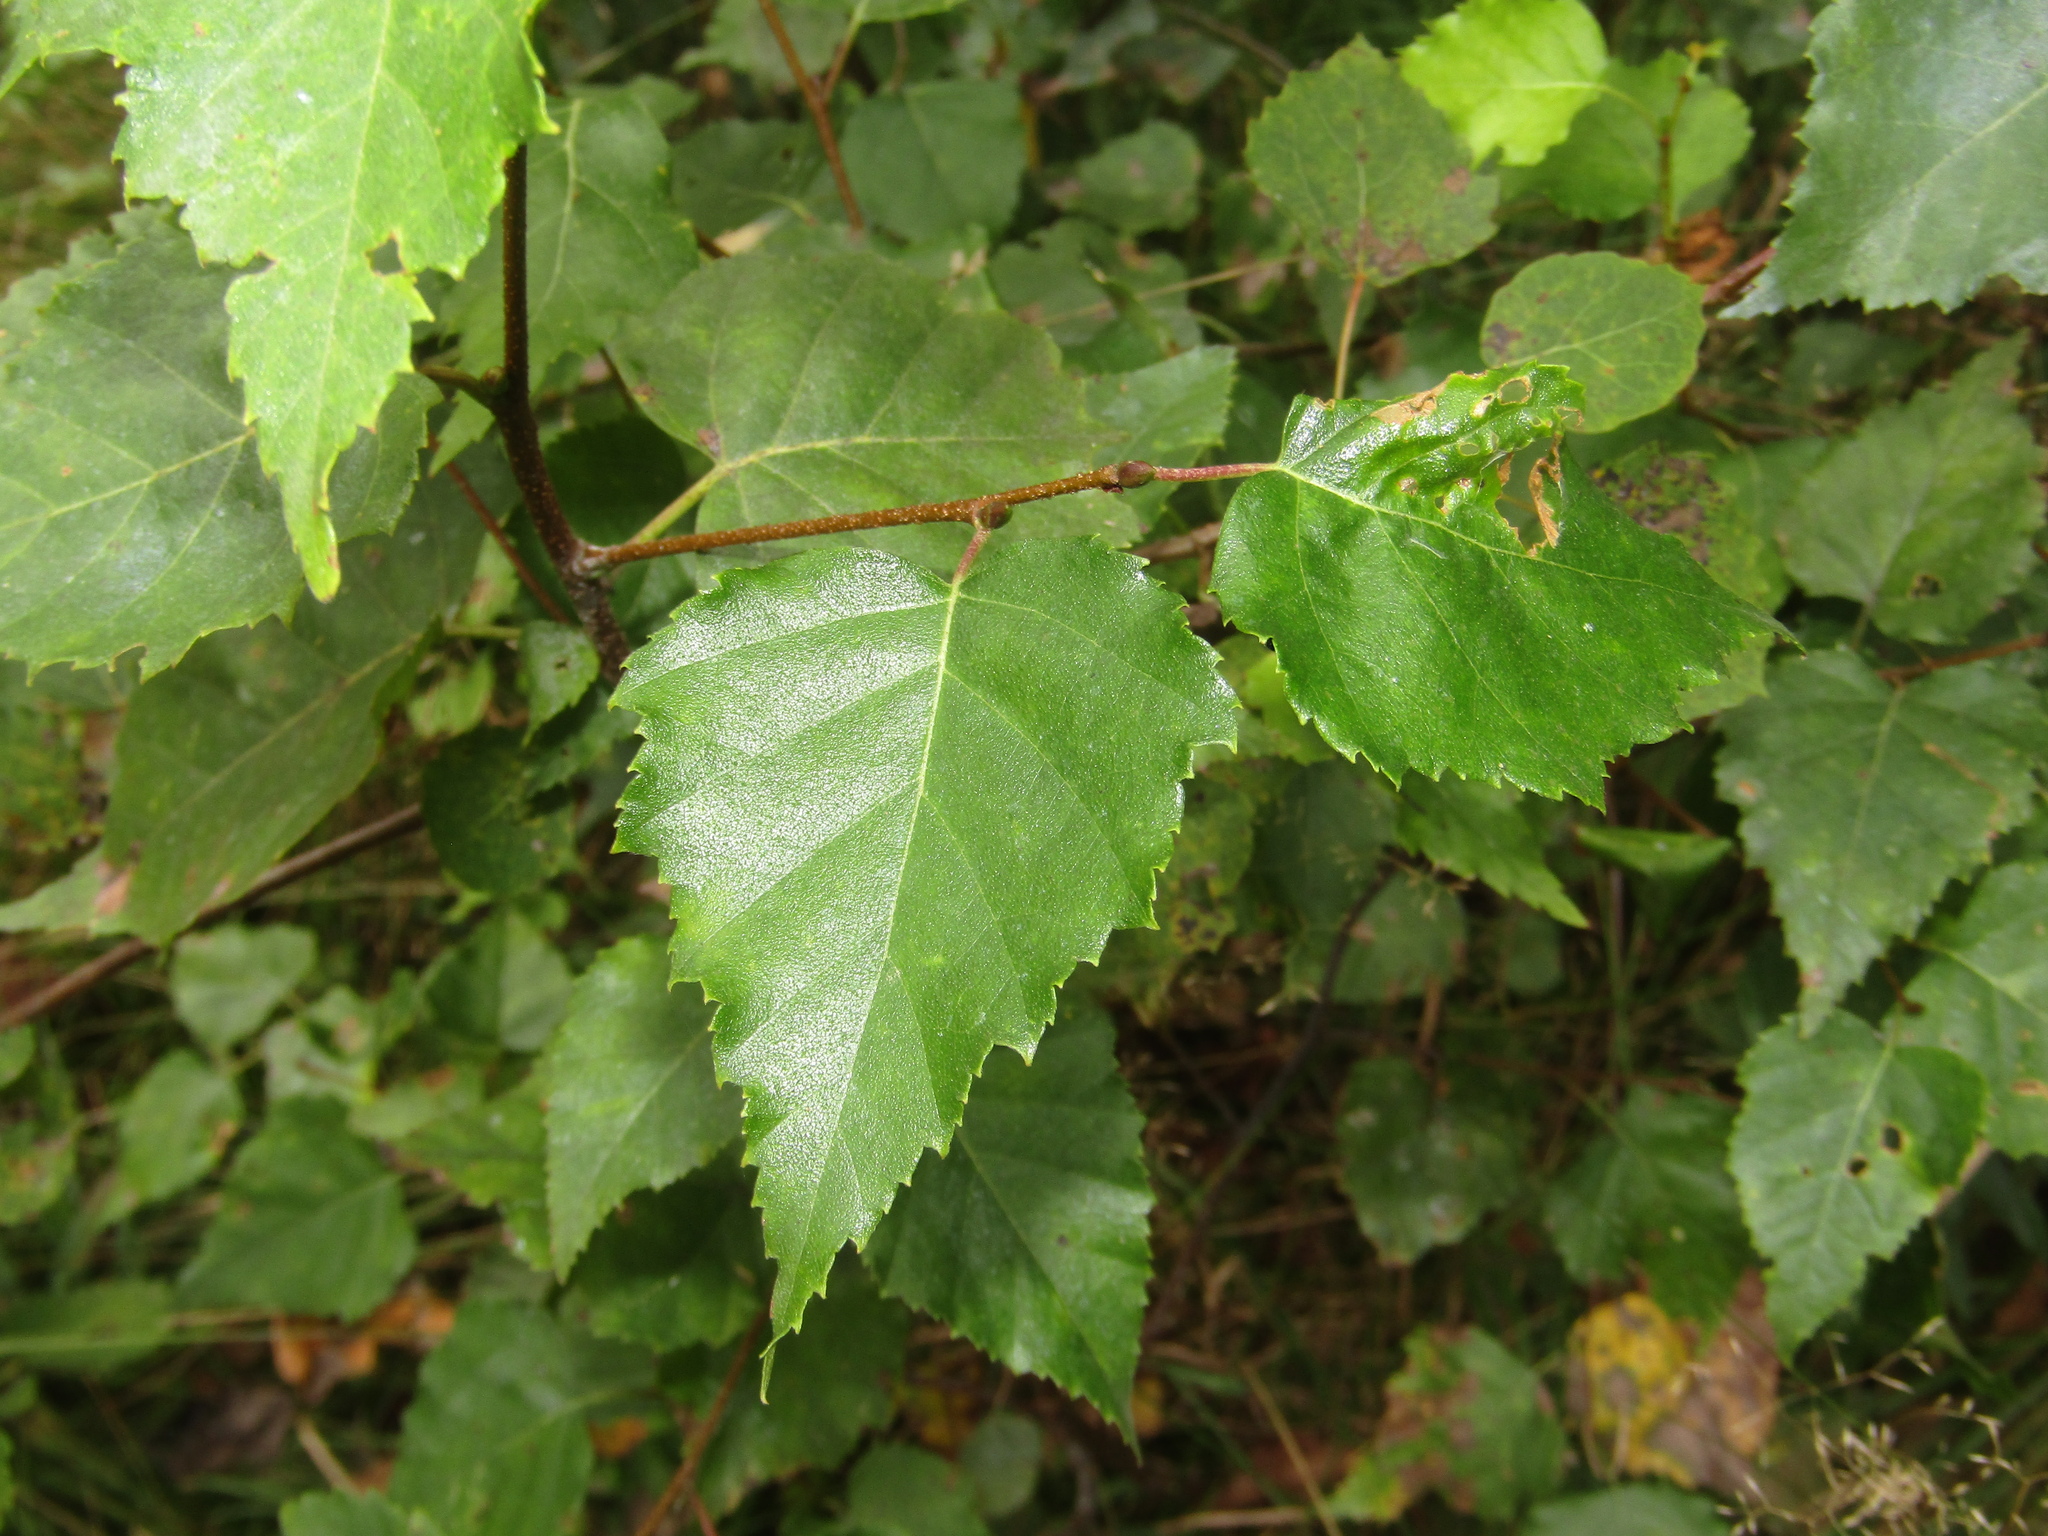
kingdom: Plantae
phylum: Tracheophyta
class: Magnoliopsida
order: Fagales
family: Betulaceae
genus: Betula
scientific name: Betula pendula
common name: Silver birch
